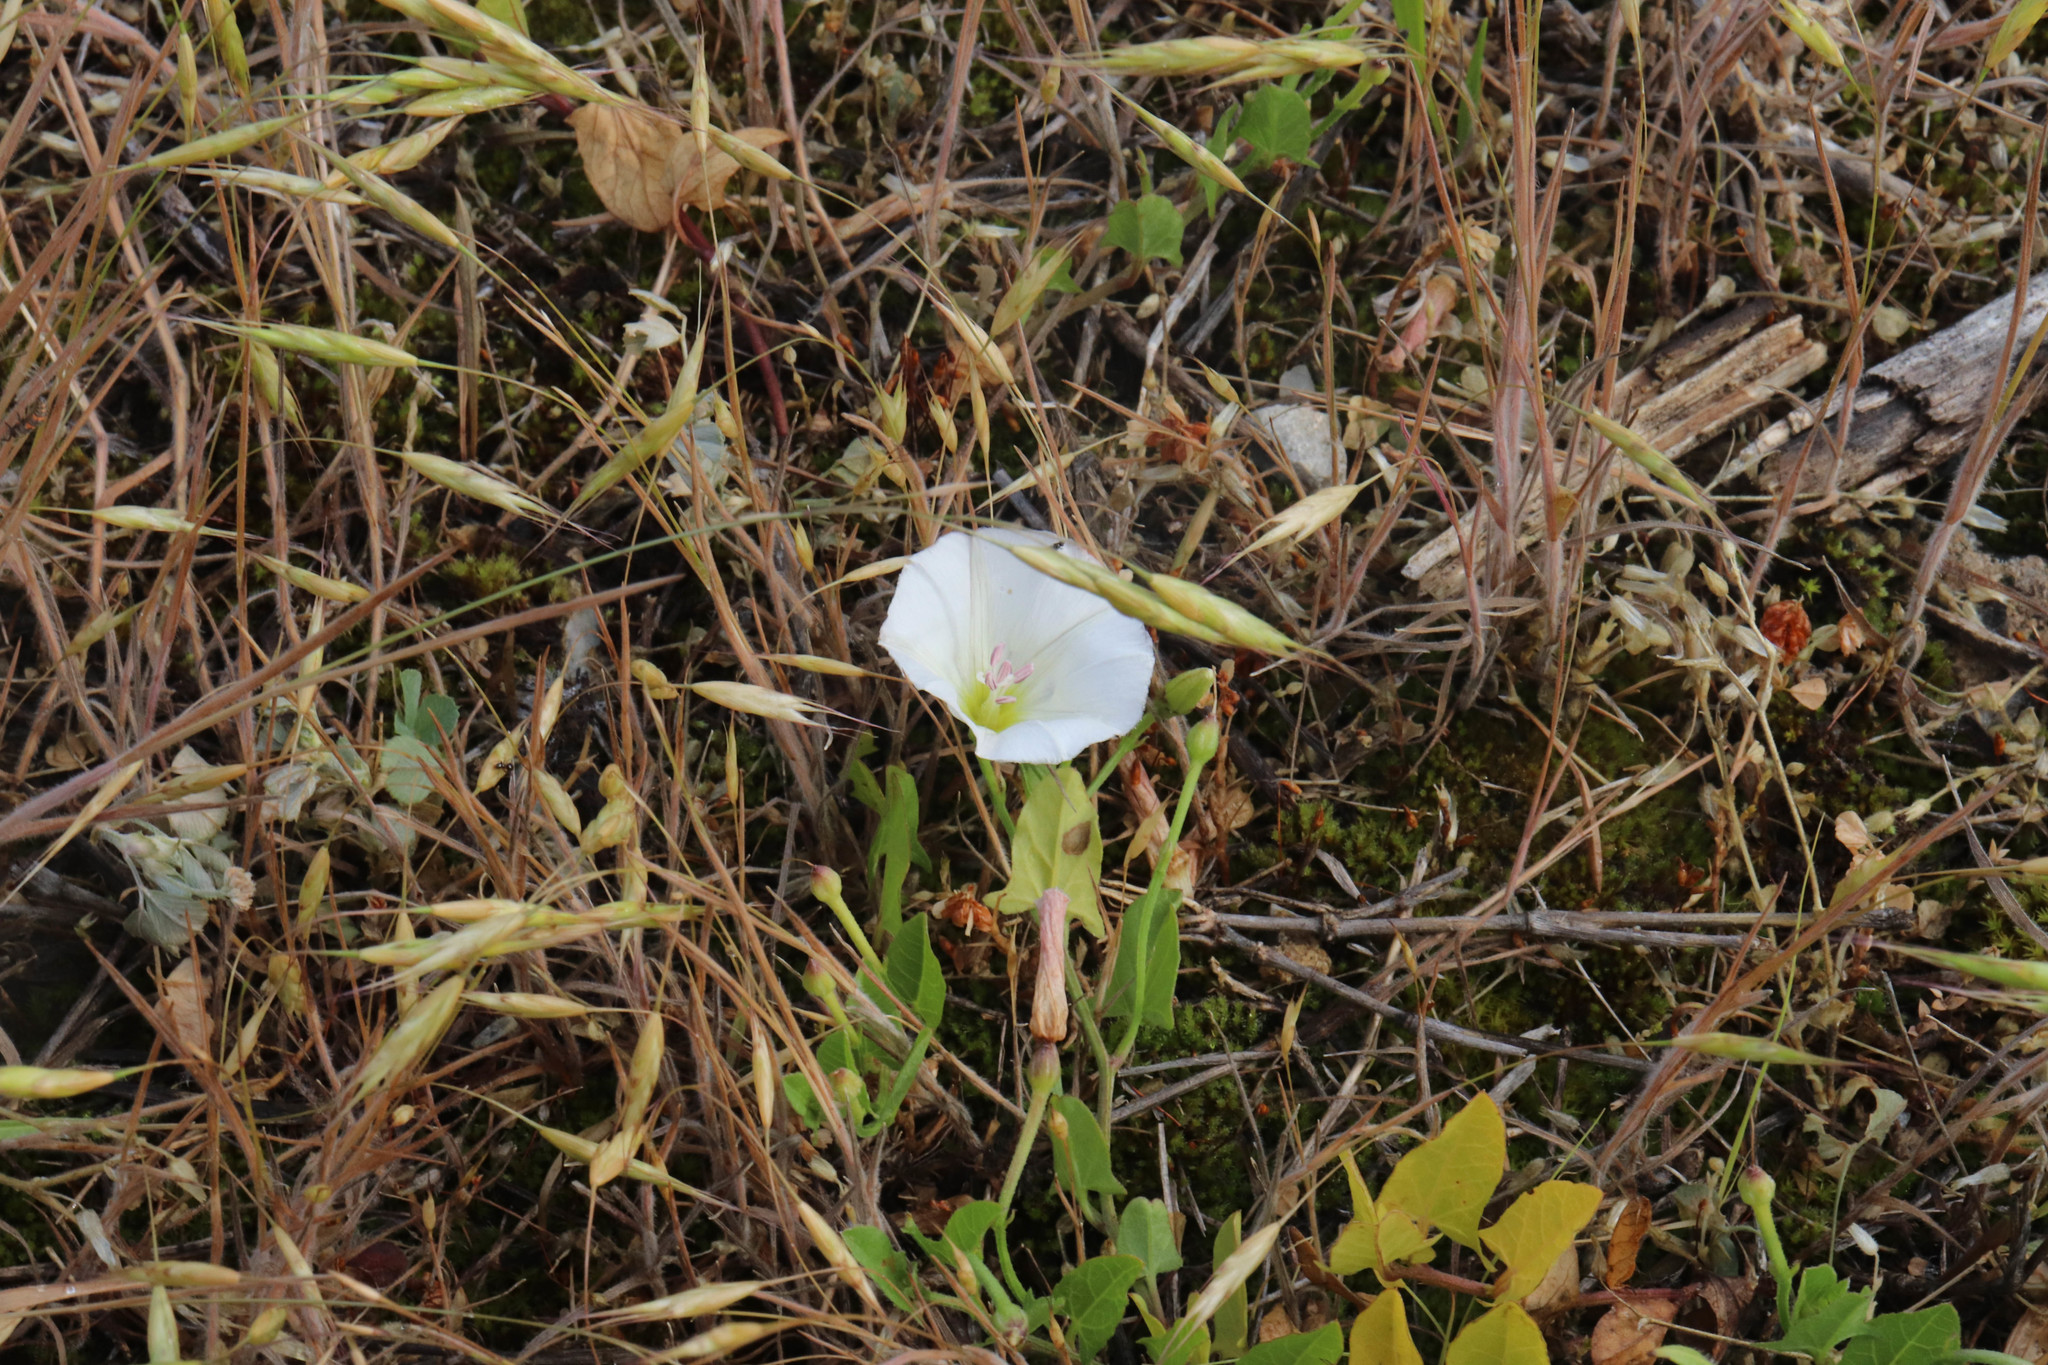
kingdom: Plantae
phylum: Tracheophyta
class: Magnoliopsida
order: Solanales
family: Convolvulaceae
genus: Convolvulus
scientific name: Convolvulus arvensis
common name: Field bindweed
